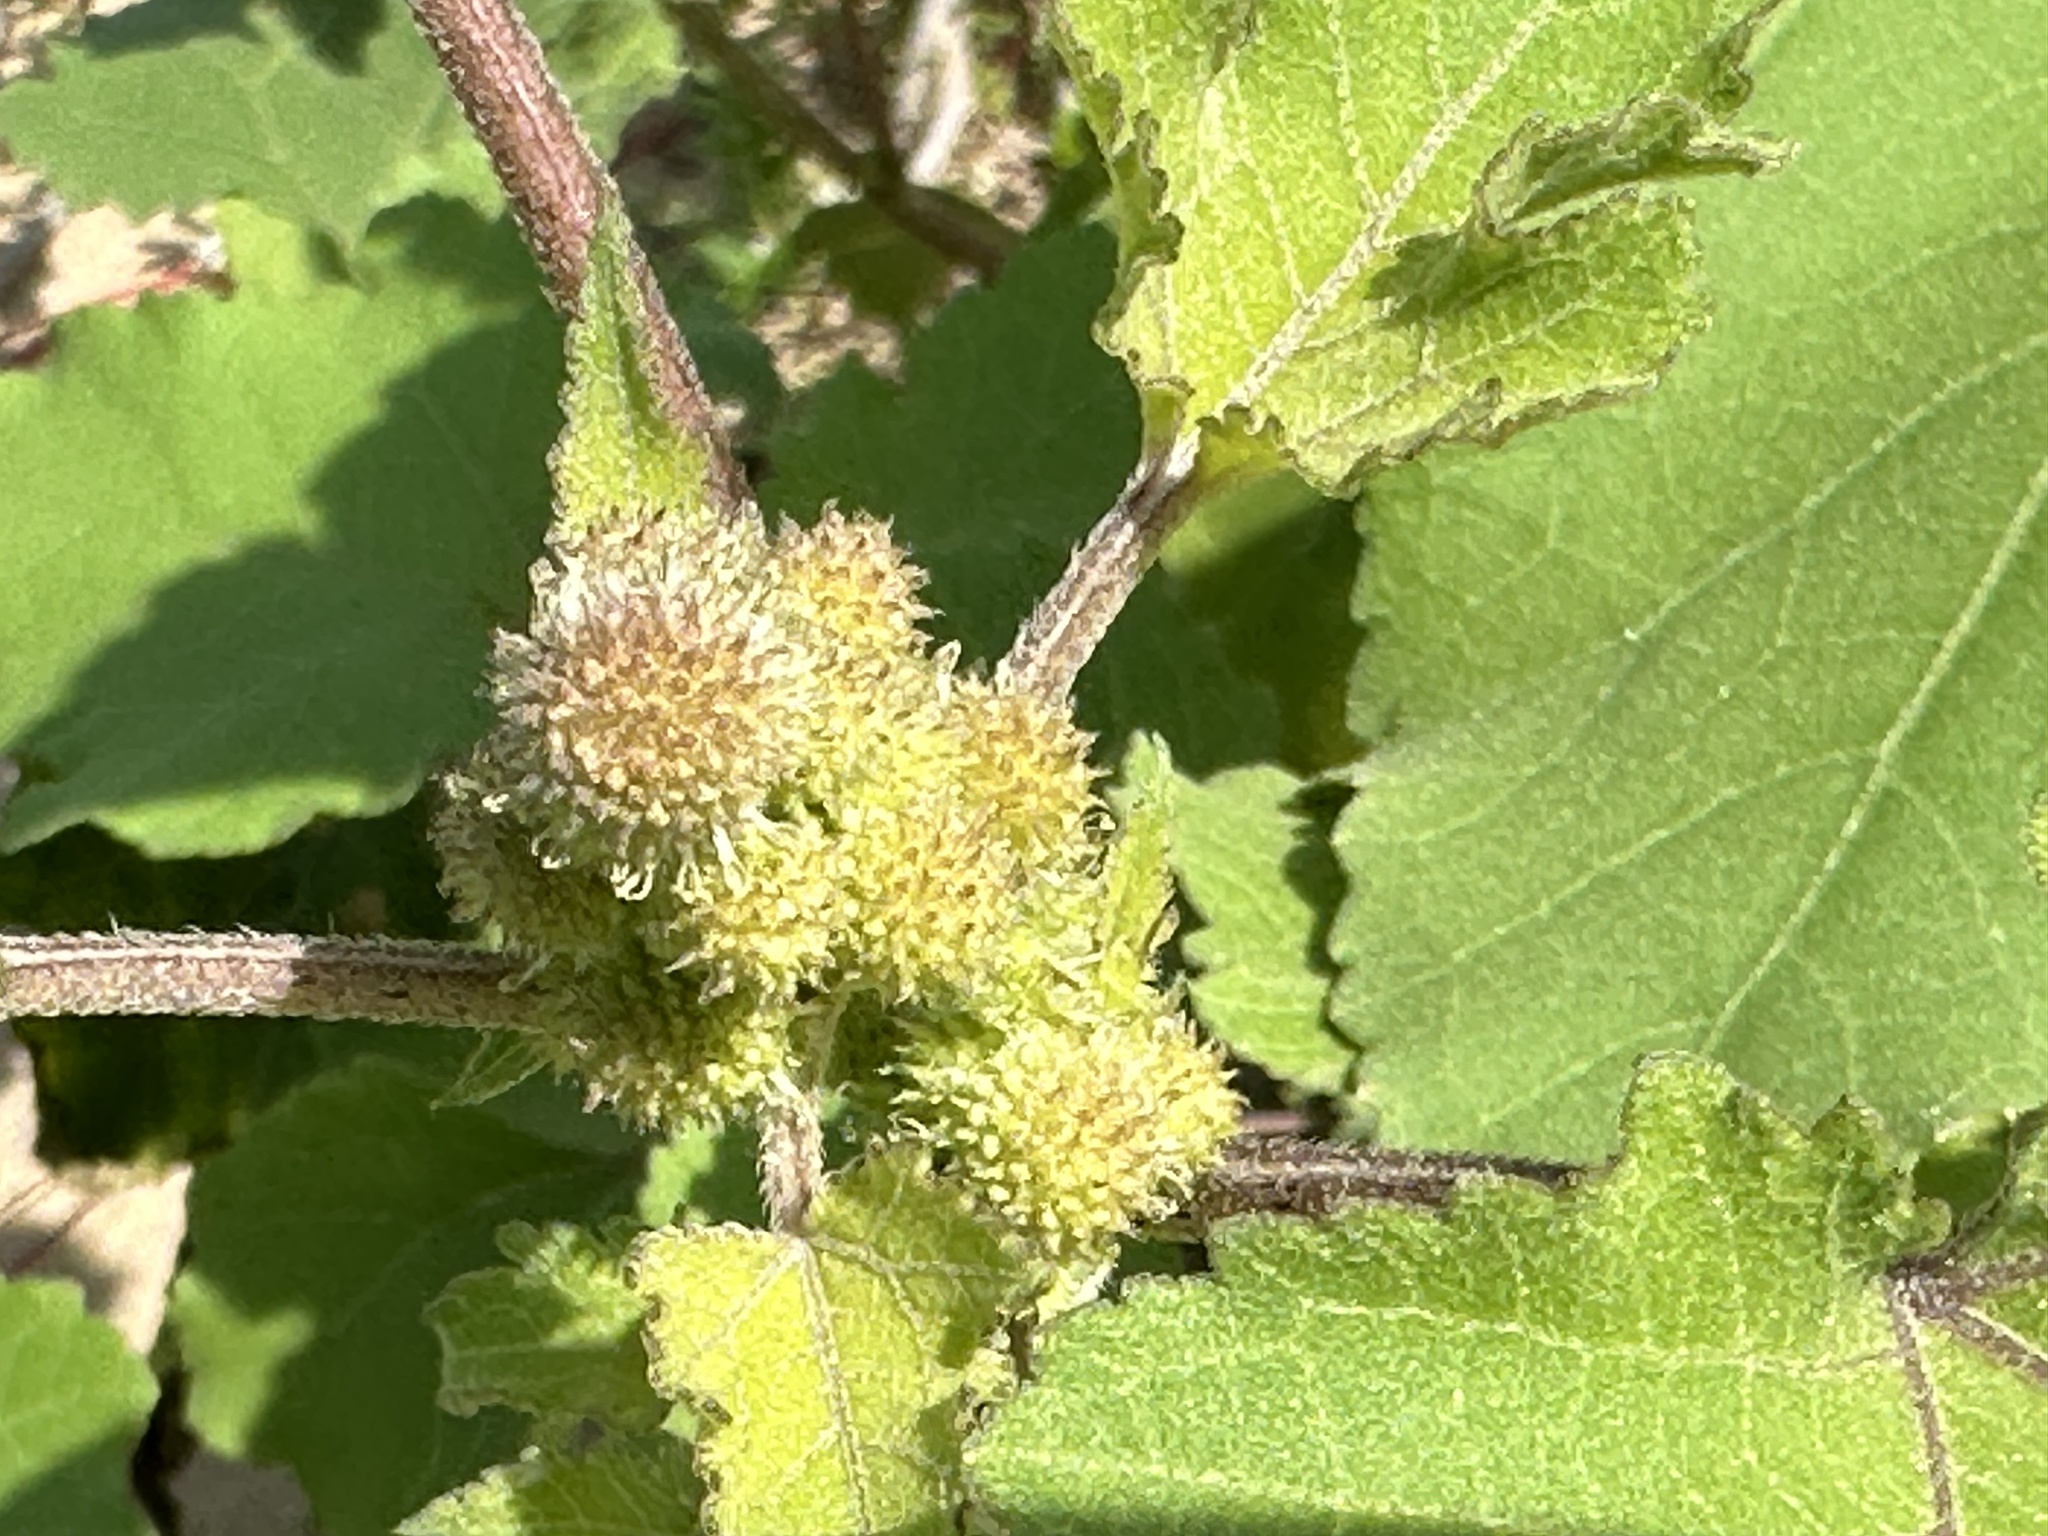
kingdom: Plantae
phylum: Tracheophyta
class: Magnoliopsida
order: Asterales
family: Asteraceae
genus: Xanthium
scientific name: Xanthium orientale
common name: Californian burr
